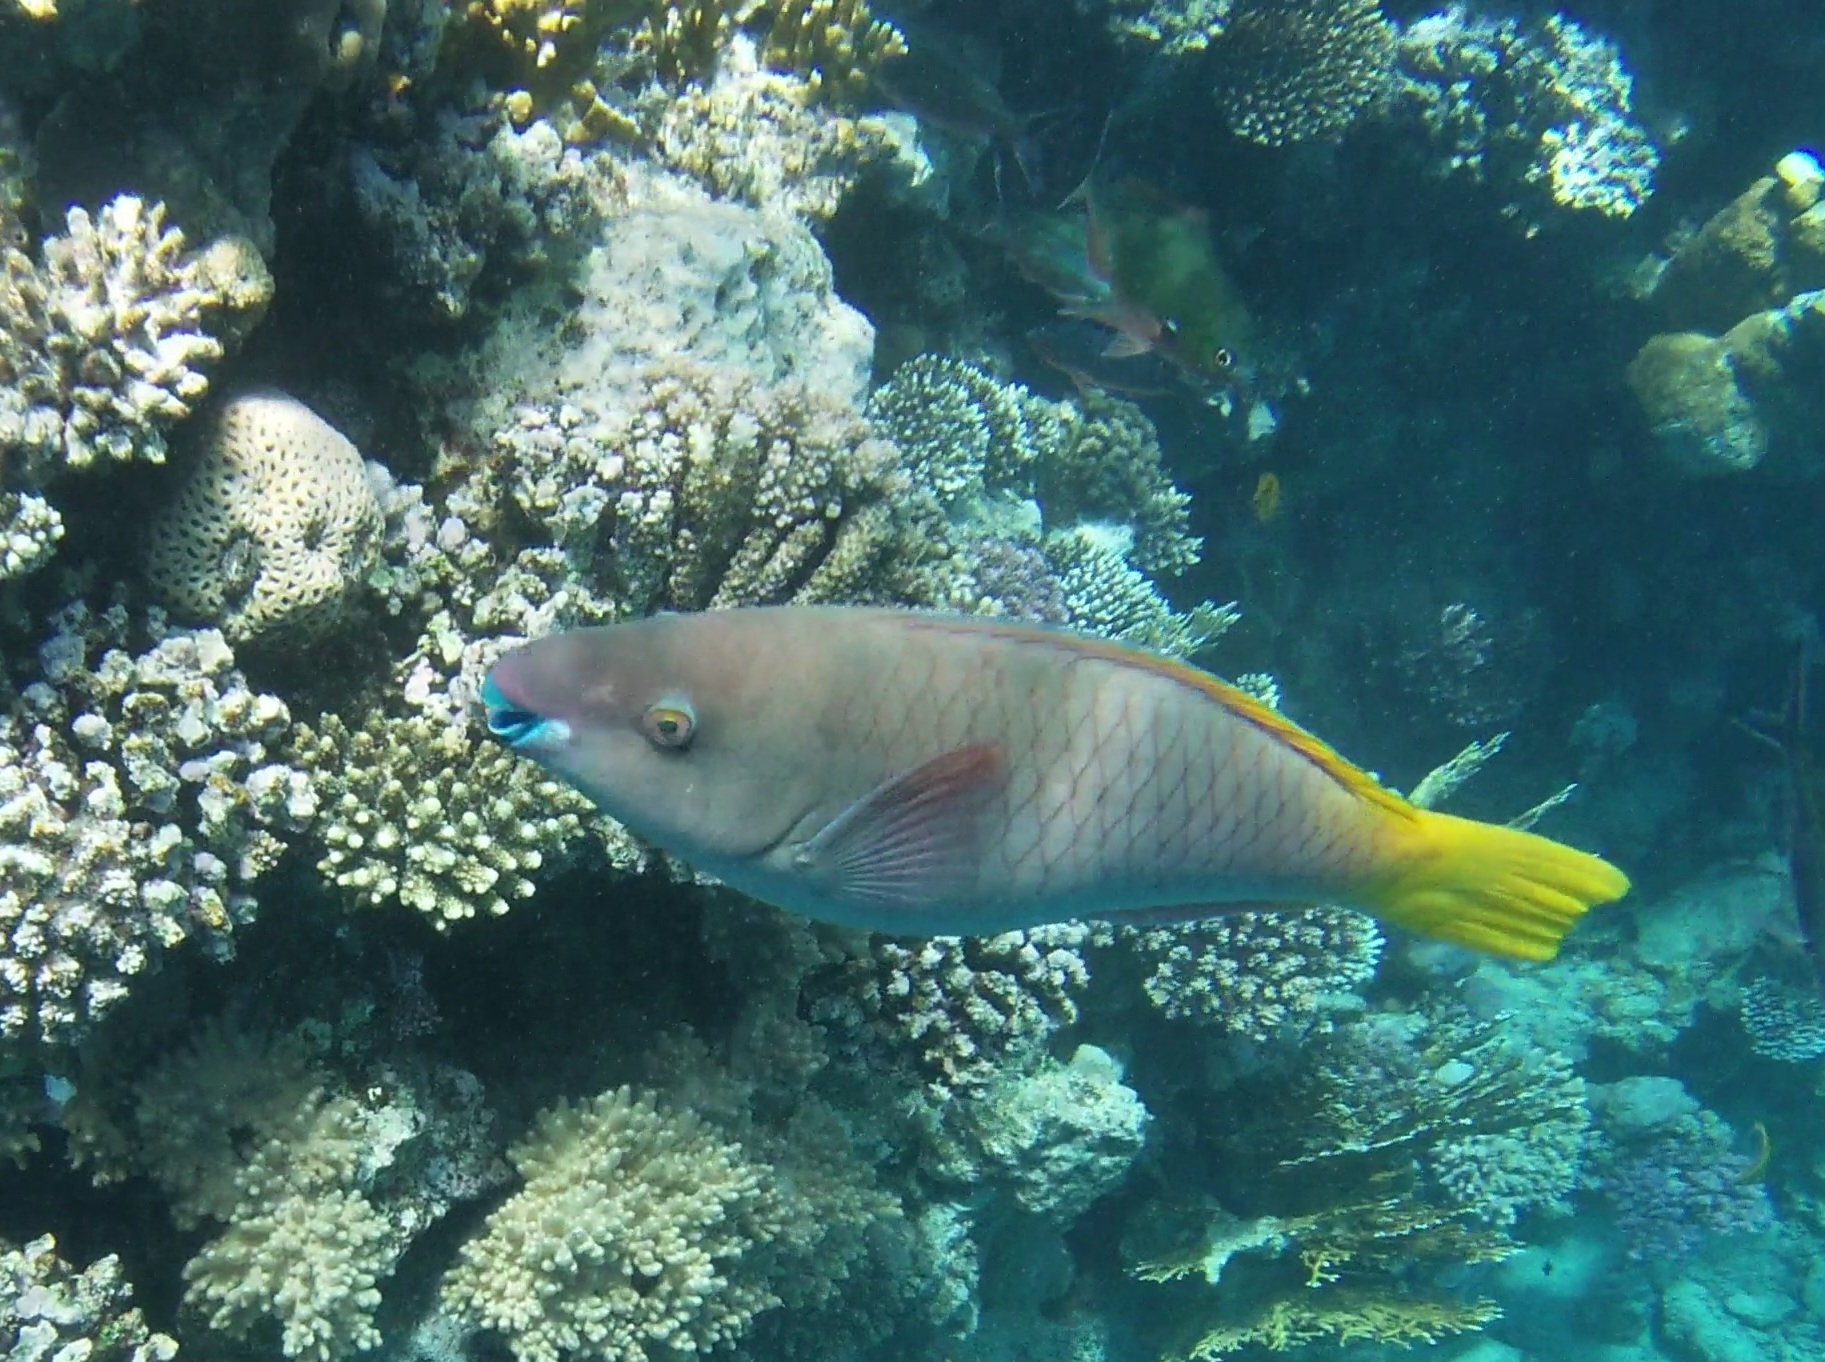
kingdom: Animalia
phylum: Chordata
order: Perciformes
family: Scaridae
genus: Scarus
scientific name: Scarus ferrugineus
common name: Rusty parrotfish
